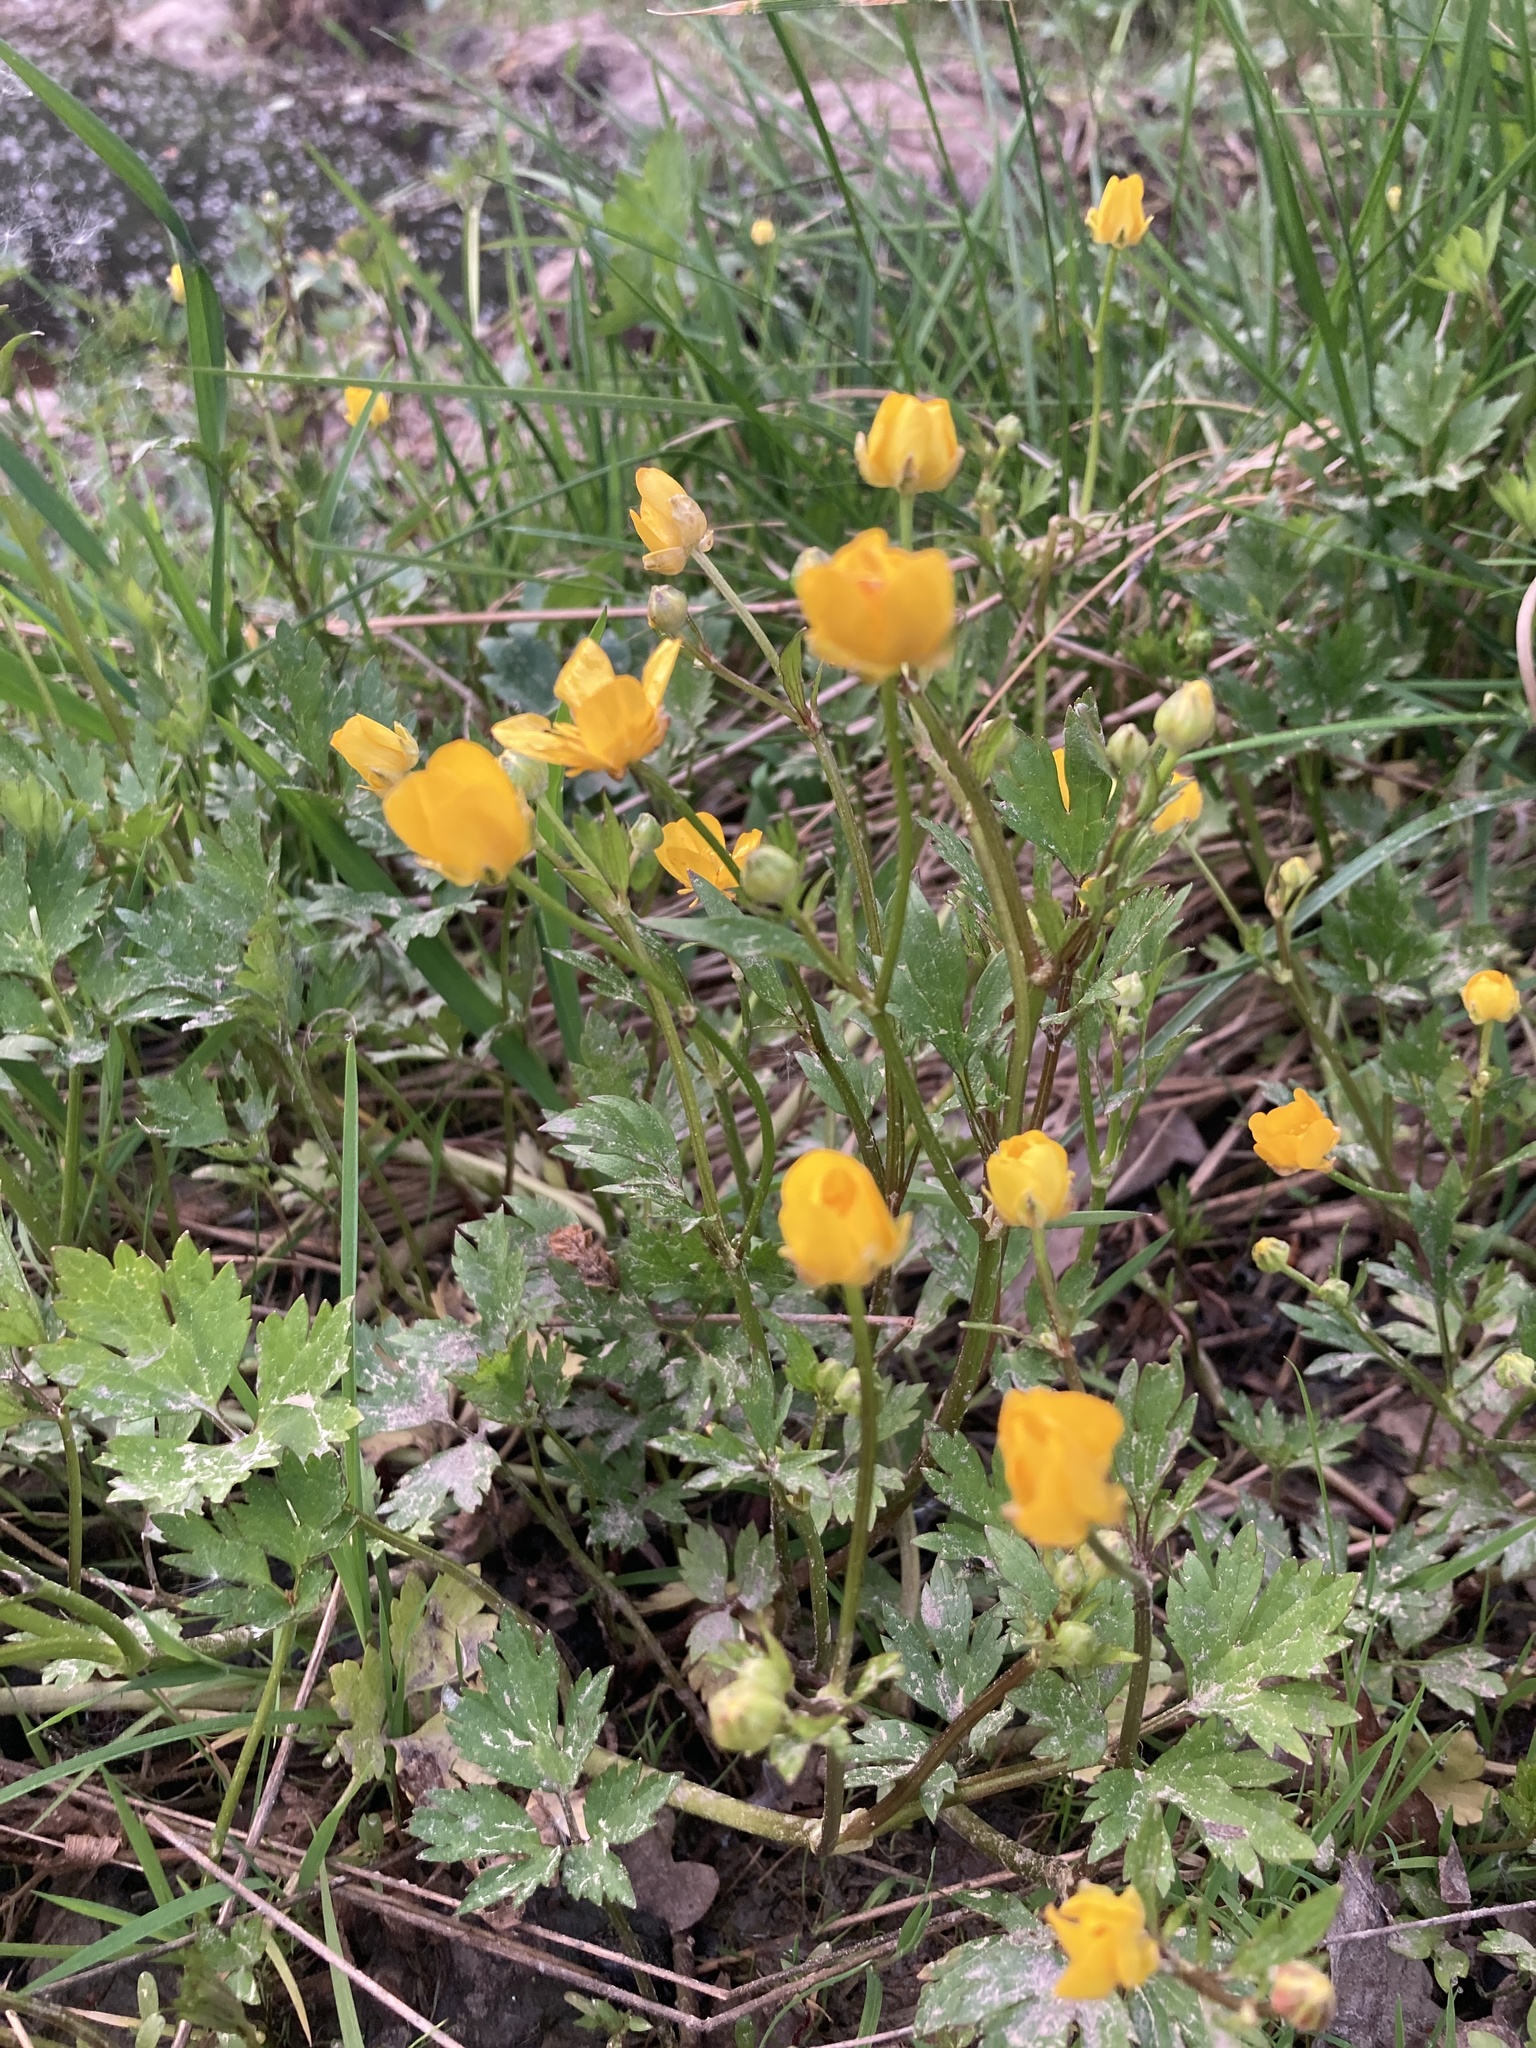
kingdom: Plantae
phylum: Tracheophyta
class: Magnoliopsida
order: Ranunculales
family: Ranunculaceae
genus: Ranunculus
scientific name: Ranunculus repens
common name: Creeping buttercup
